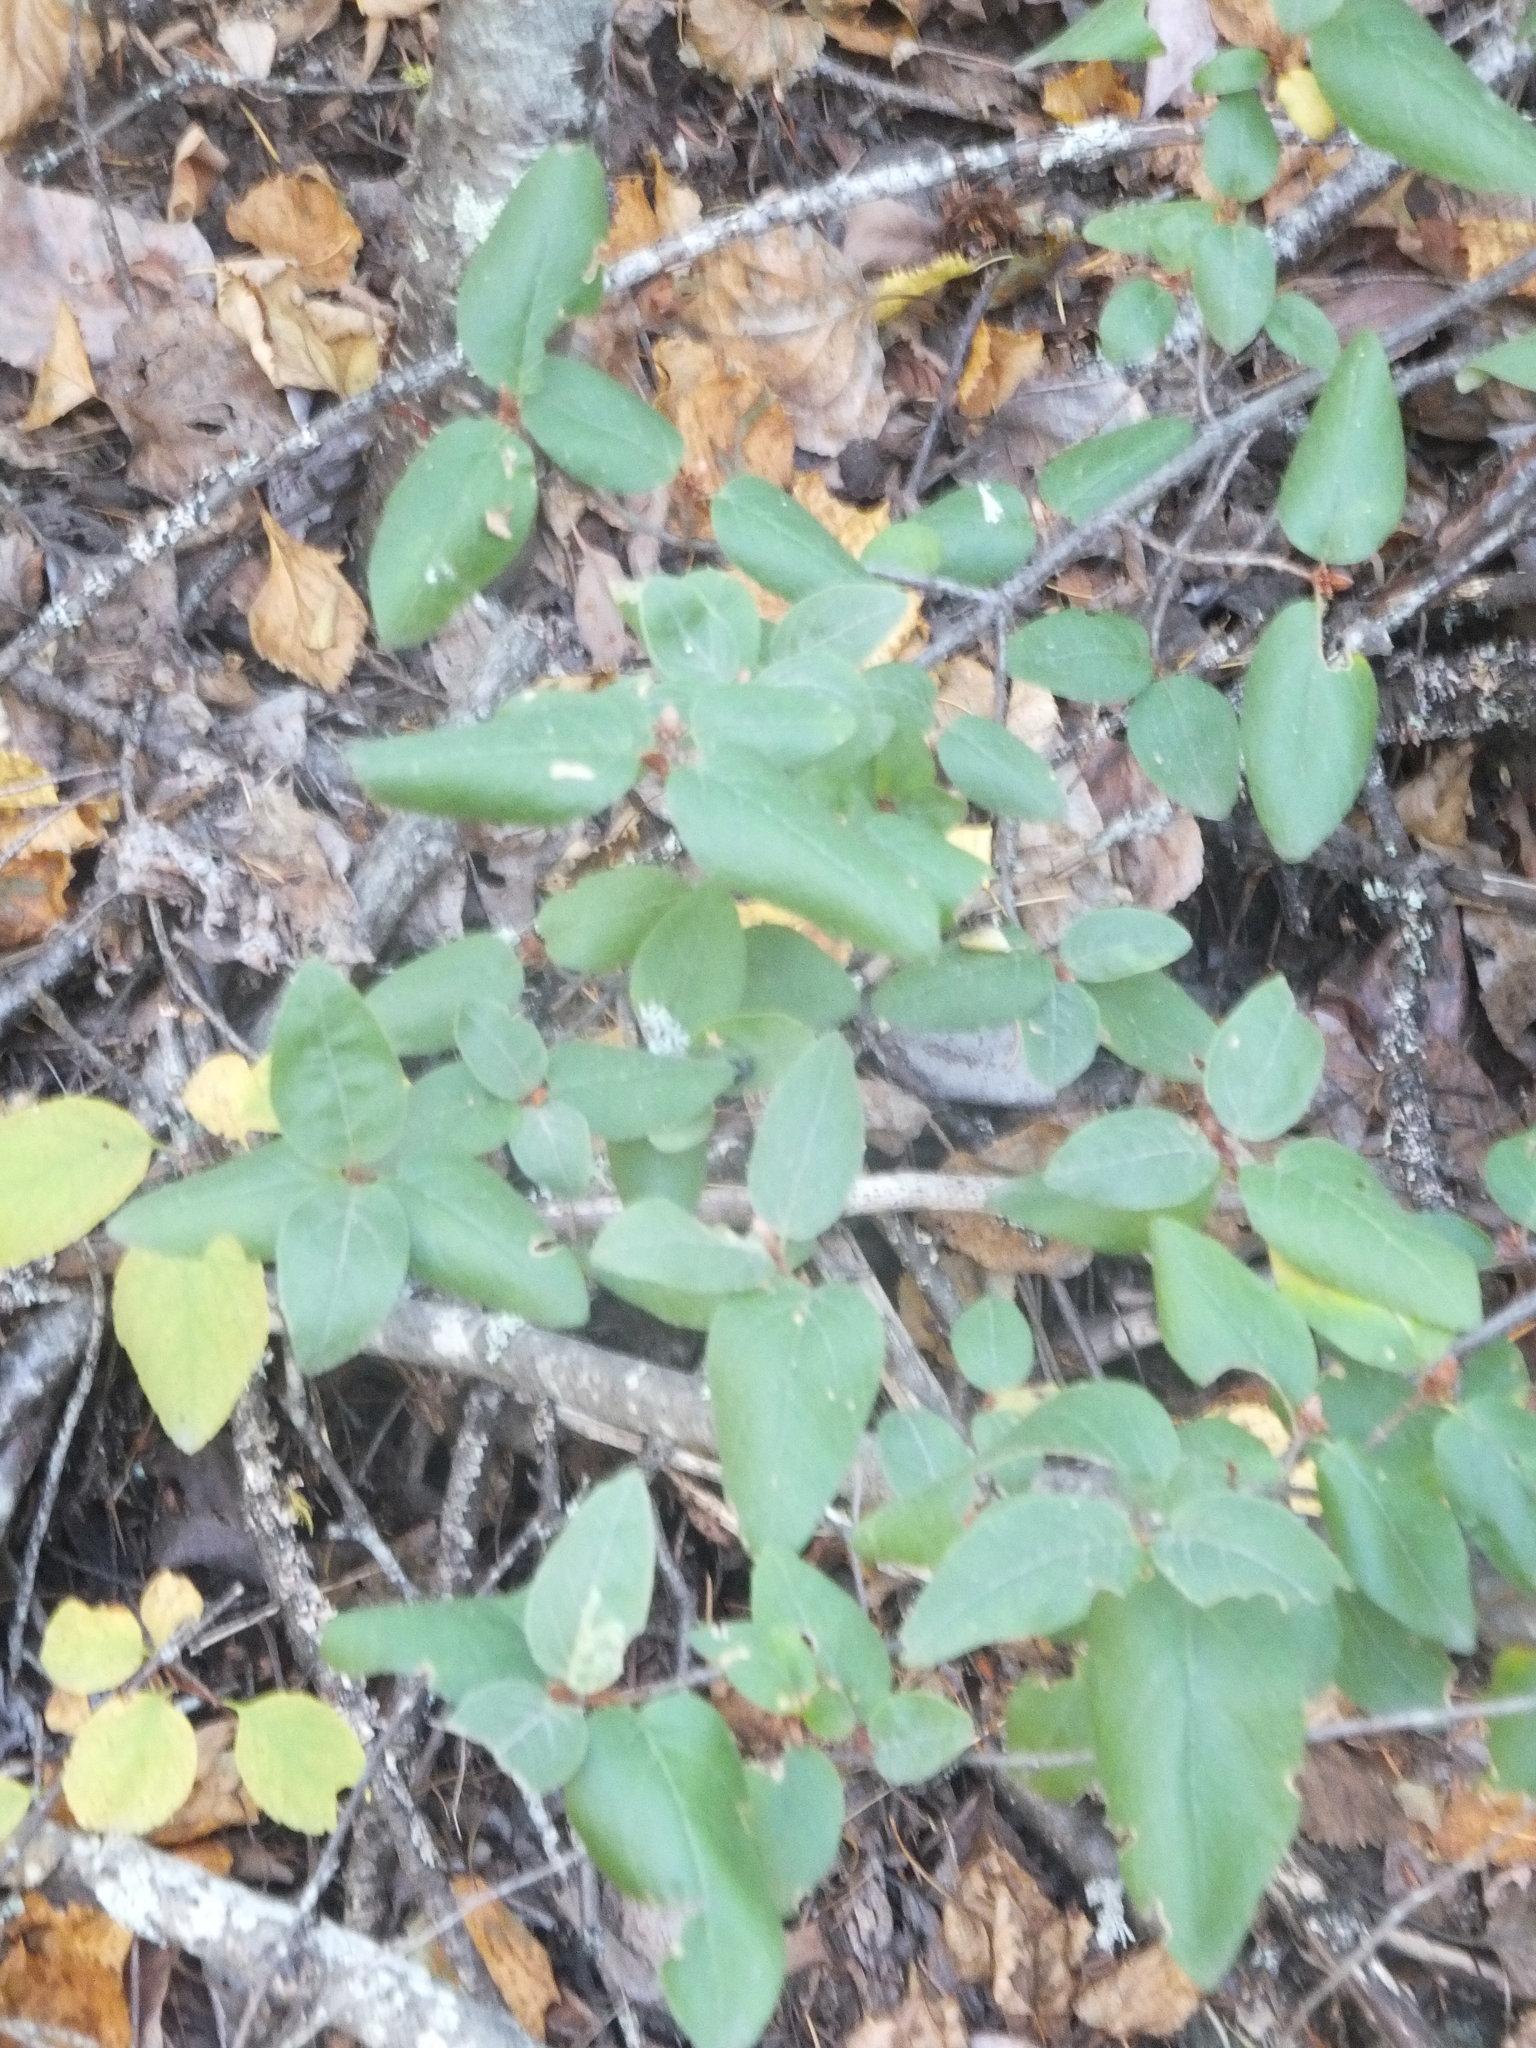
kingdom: Plantae
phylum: Tracheophyta
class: Magnoliopsida
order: Rosales
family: Elaeagnaceae
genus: Shepherdia
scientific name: Shepherdia canadensis
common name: Soapberry
